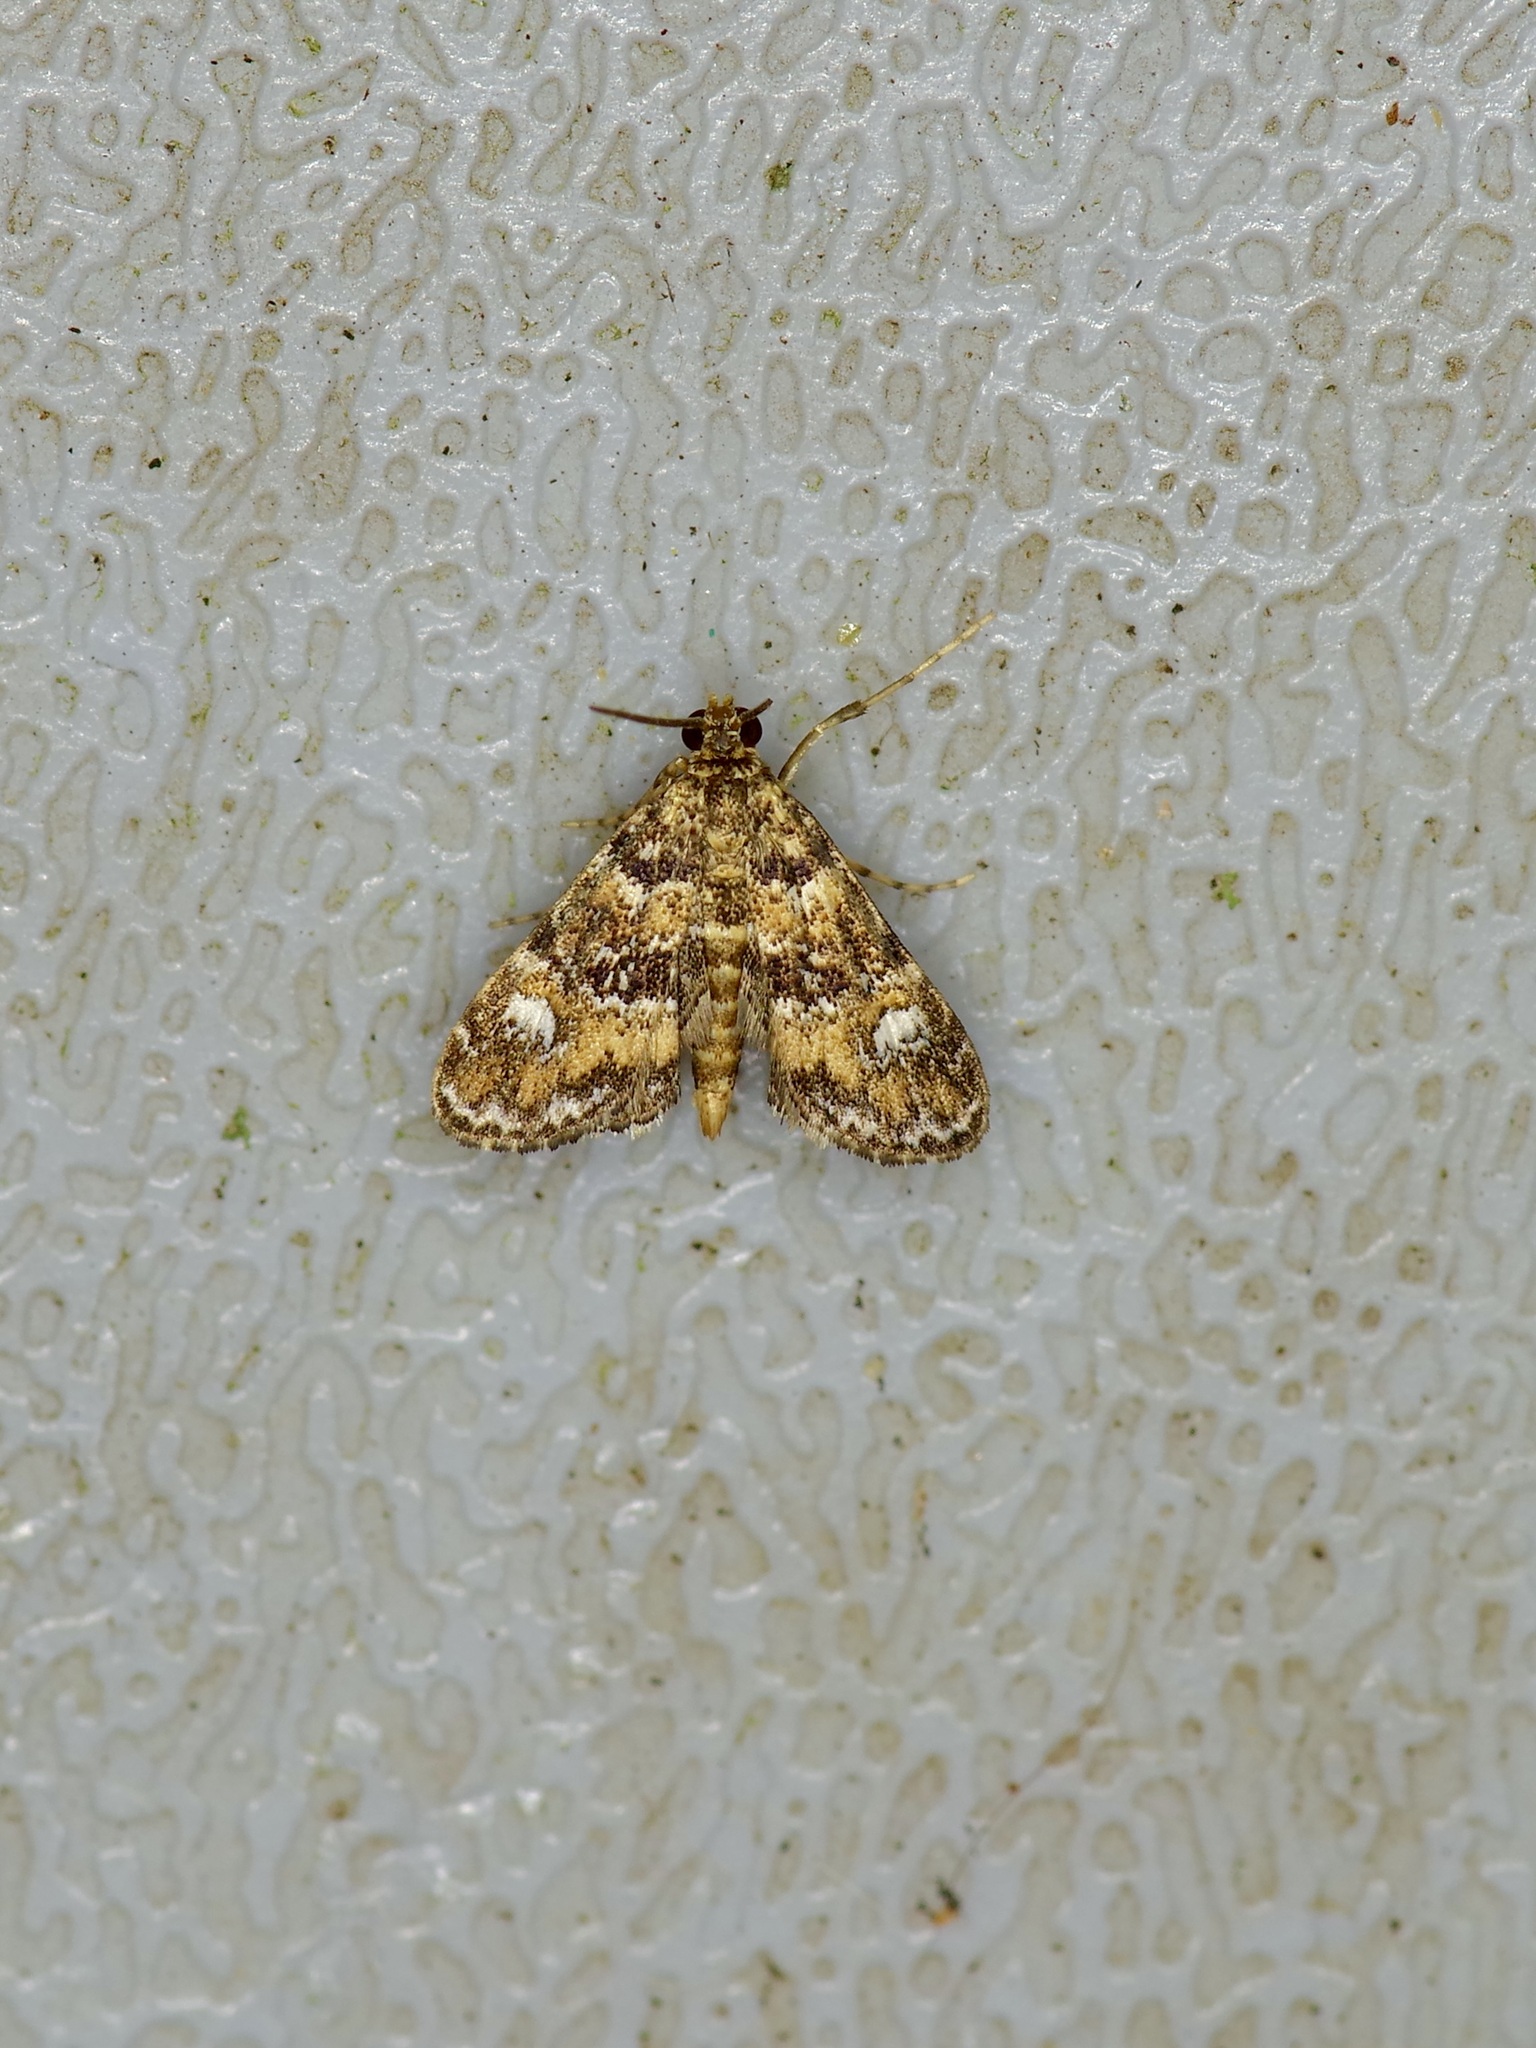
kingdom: Animalia
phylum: Arthropoda
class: Insecta
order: Lepidoptera
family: Crambidae
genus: Elophila
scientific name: Elophila obliteralis
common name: Waterlily leafcutter moth
